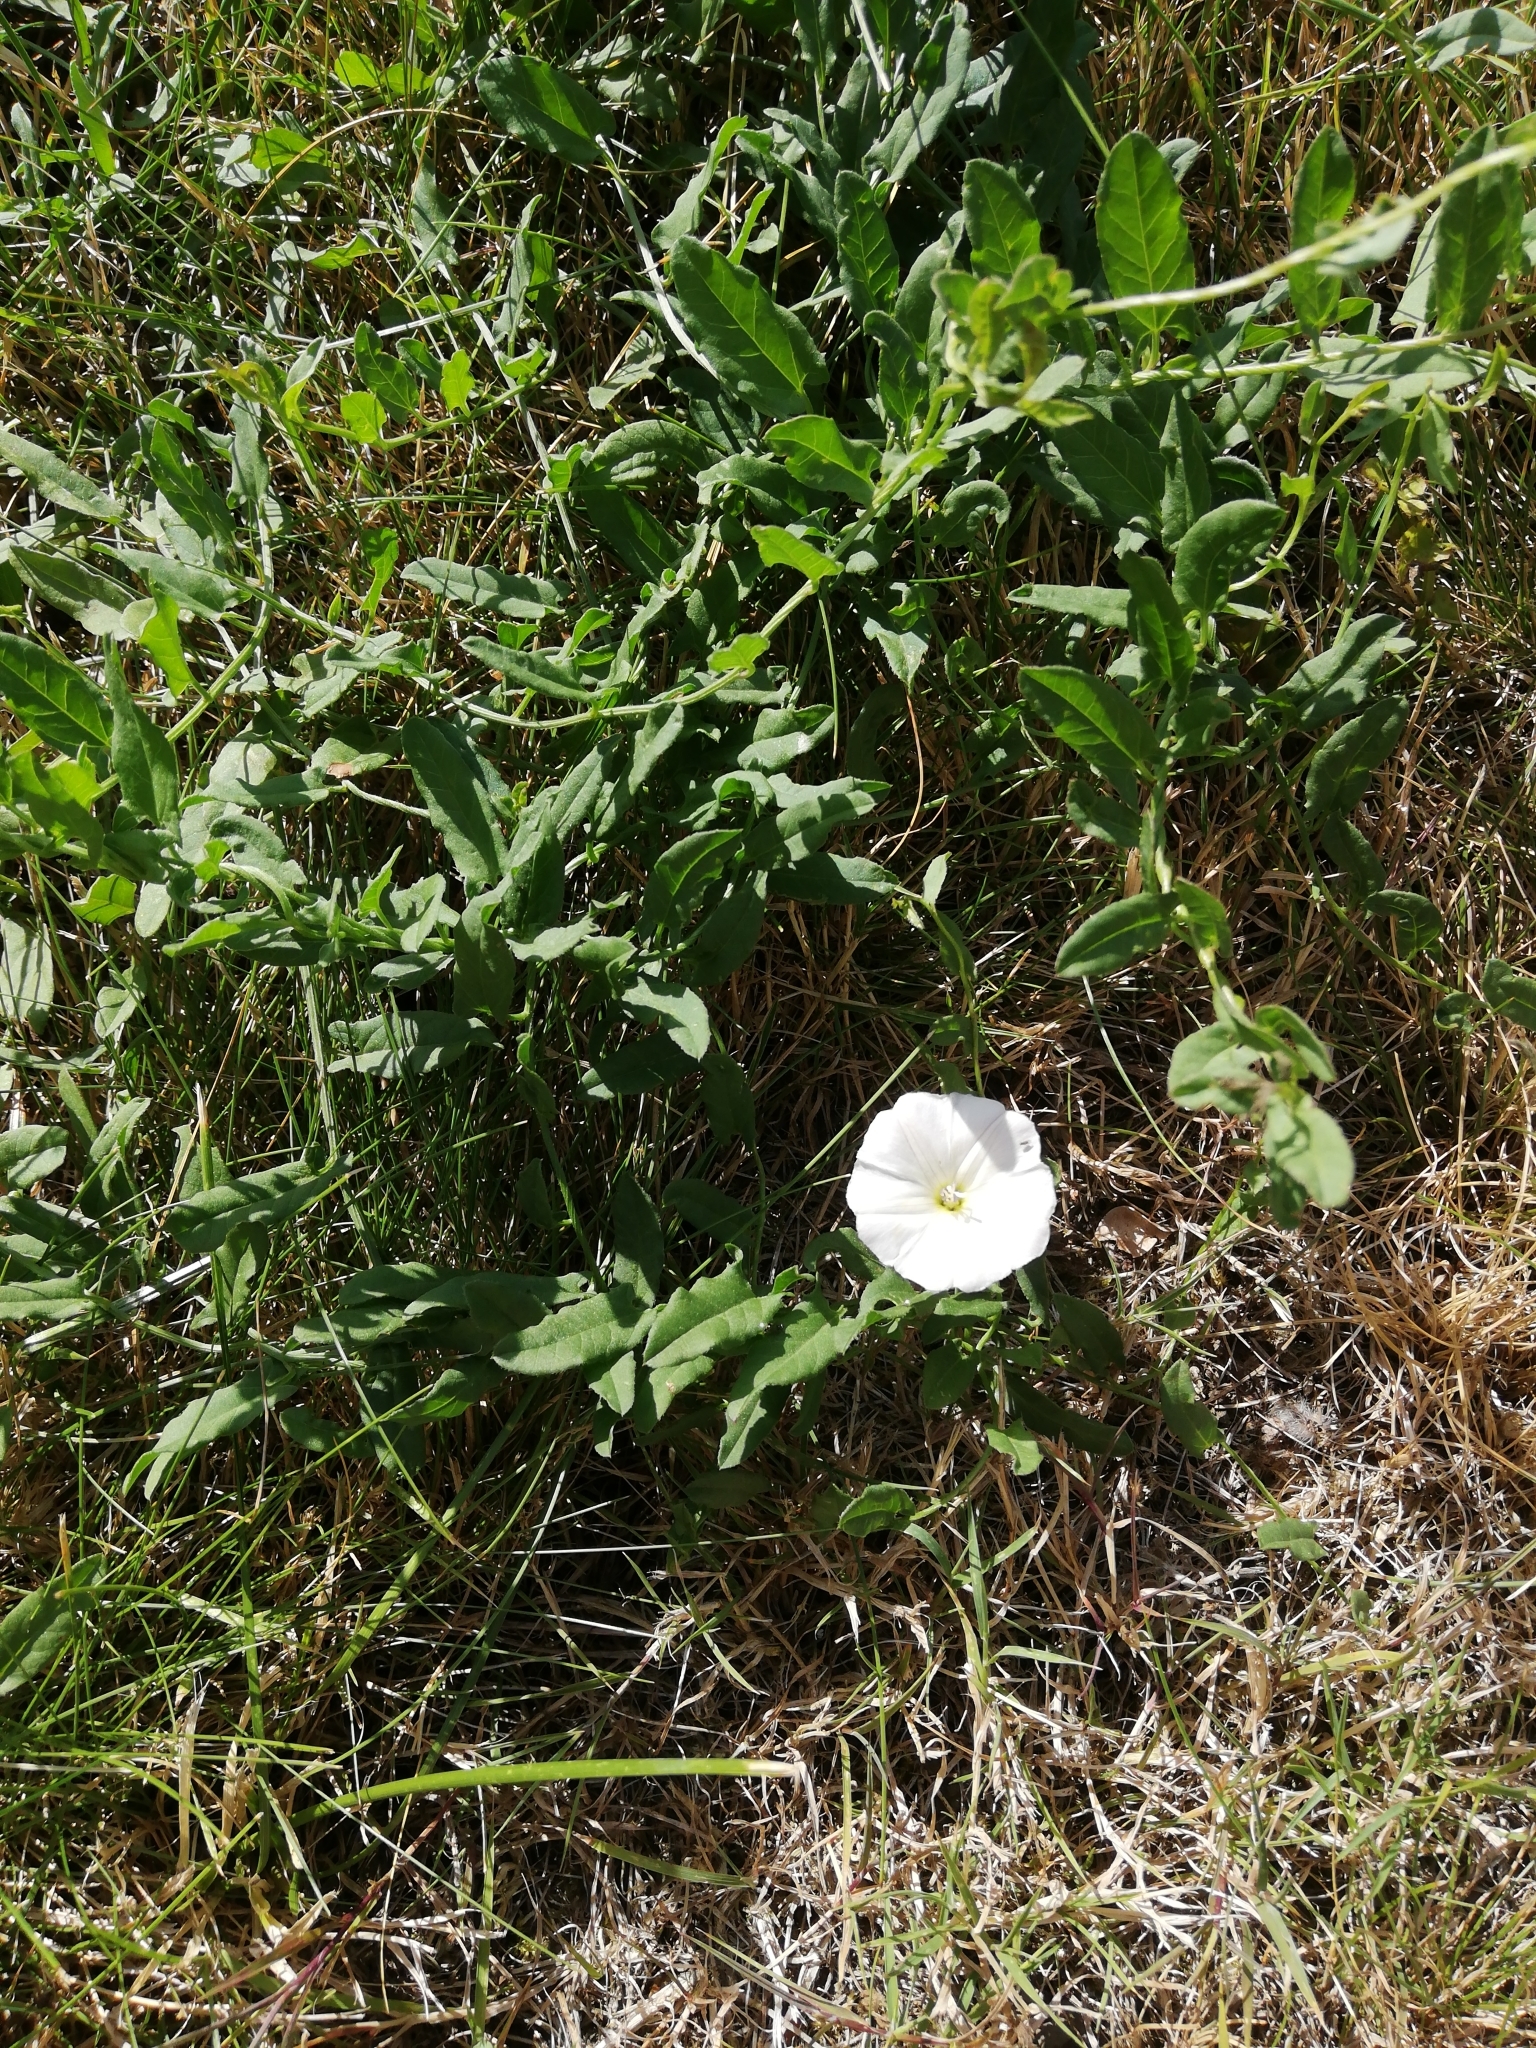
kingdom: Plantae
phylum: Tracheophyta
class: Magnoliopsida
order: Solanales
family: Convolvulaceae
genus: Convolvulus
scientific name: Convolvulus arvensis
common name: Field bindweed
